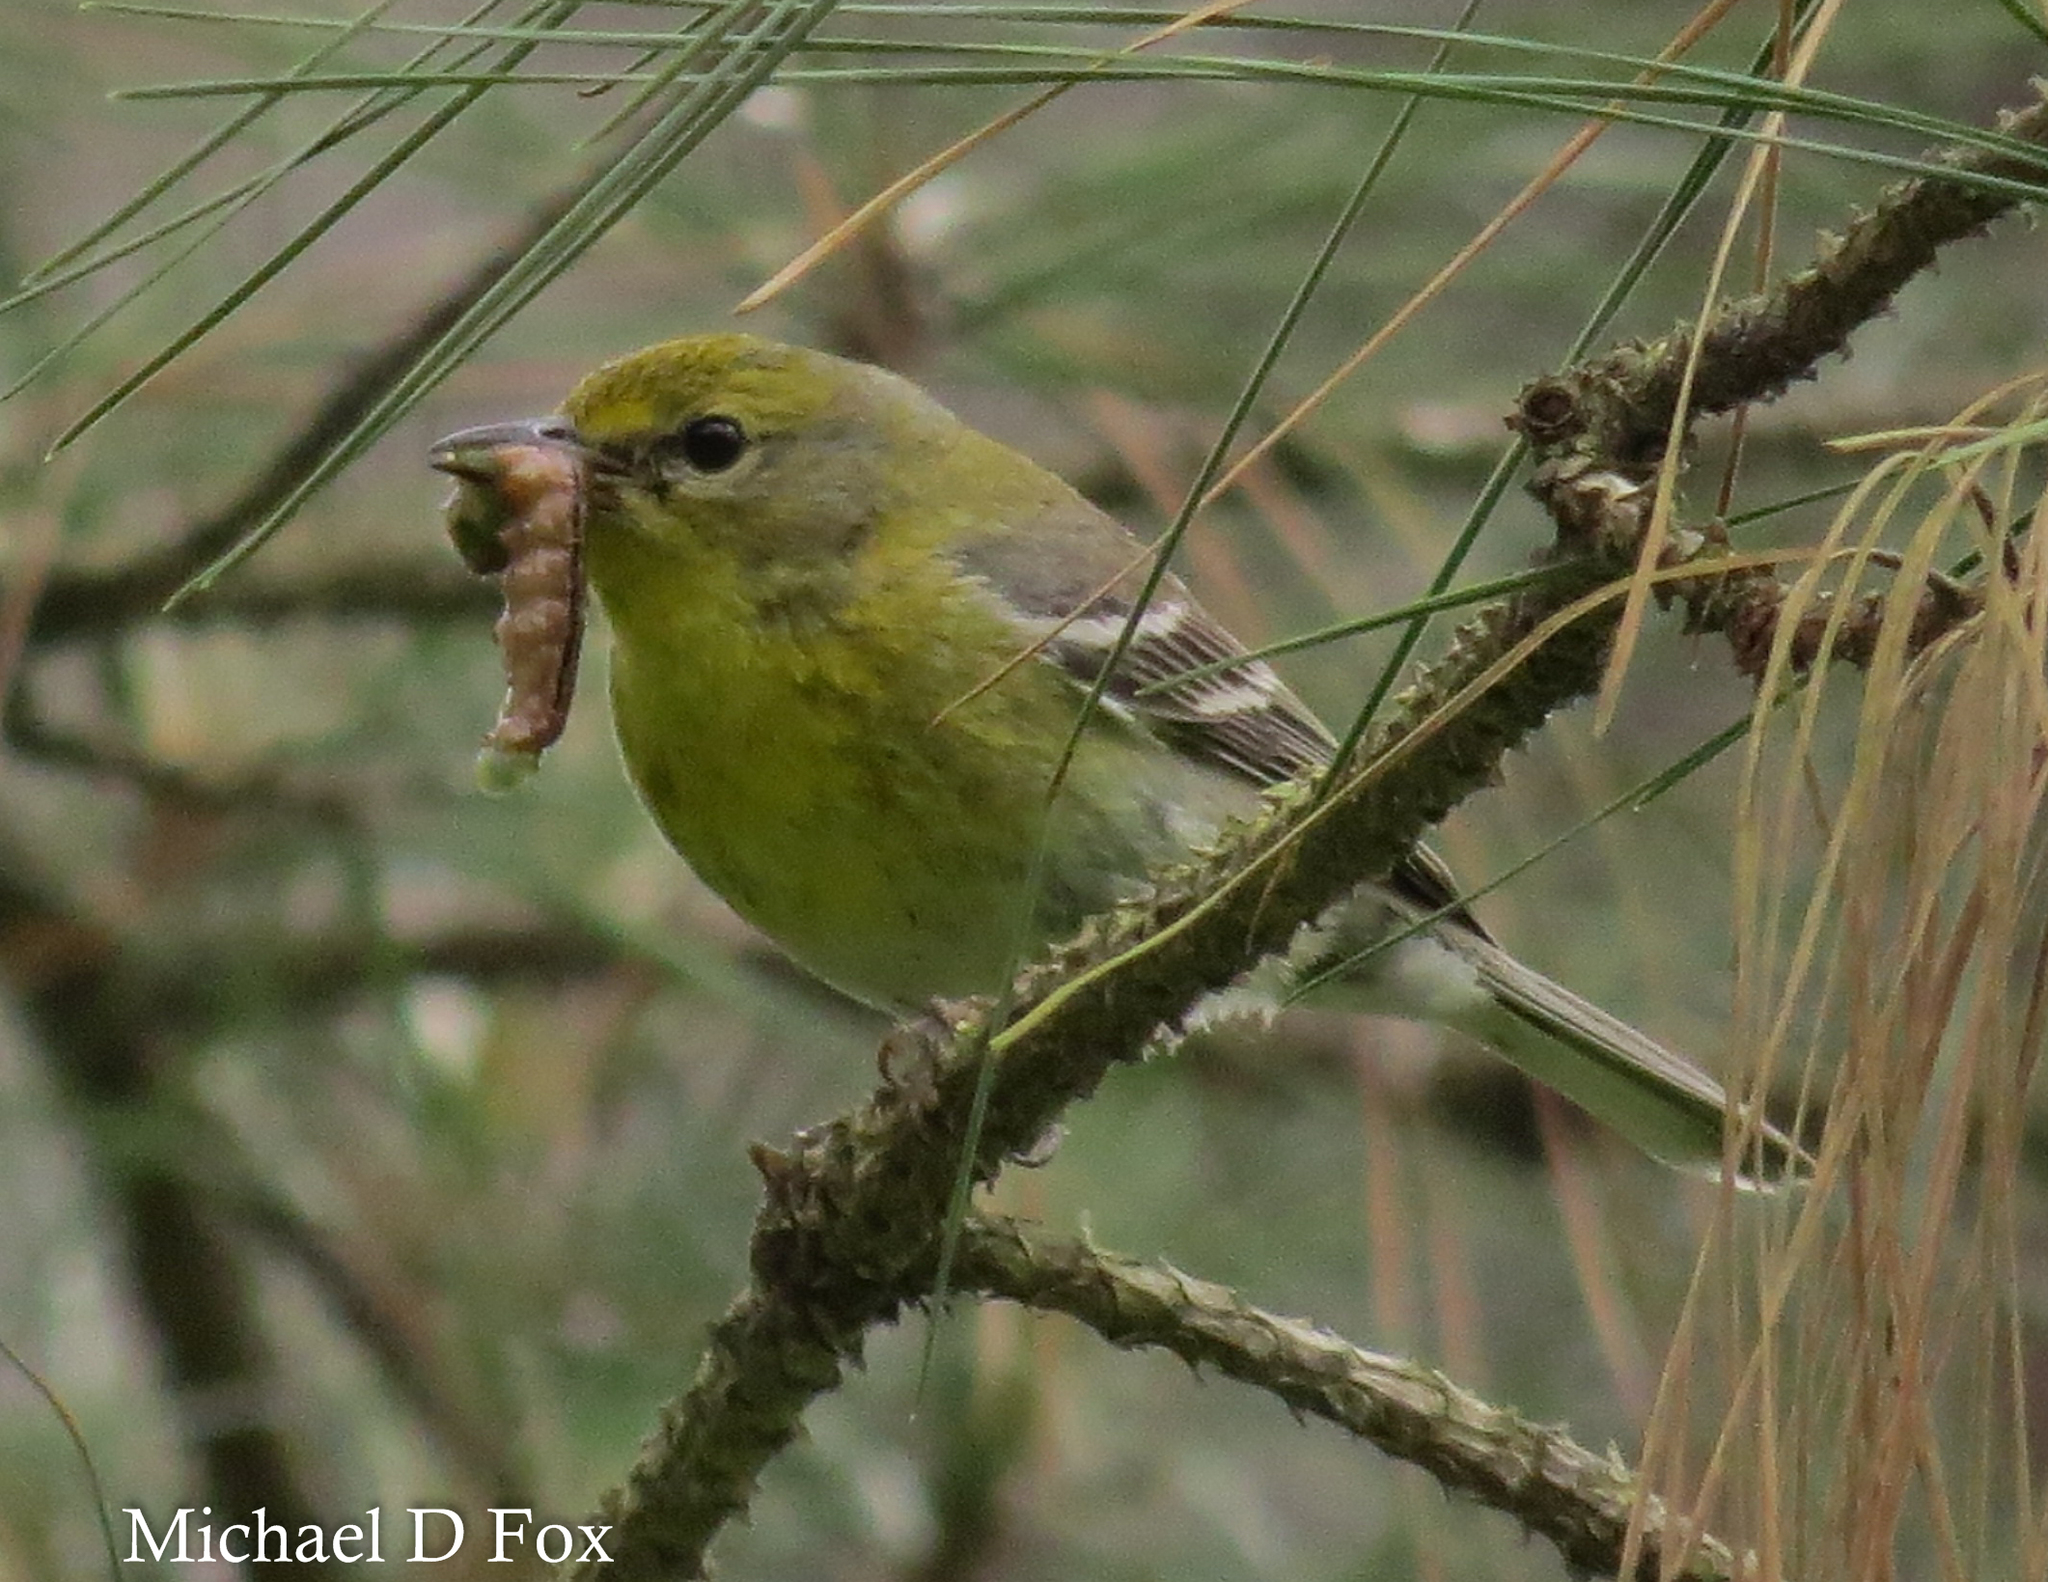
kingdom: Animalia
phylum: Chordata
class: Aves
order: Passeriformes
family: Parulidae
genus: Setophaga
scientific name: Setophaga pinus
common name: Pine warbler
